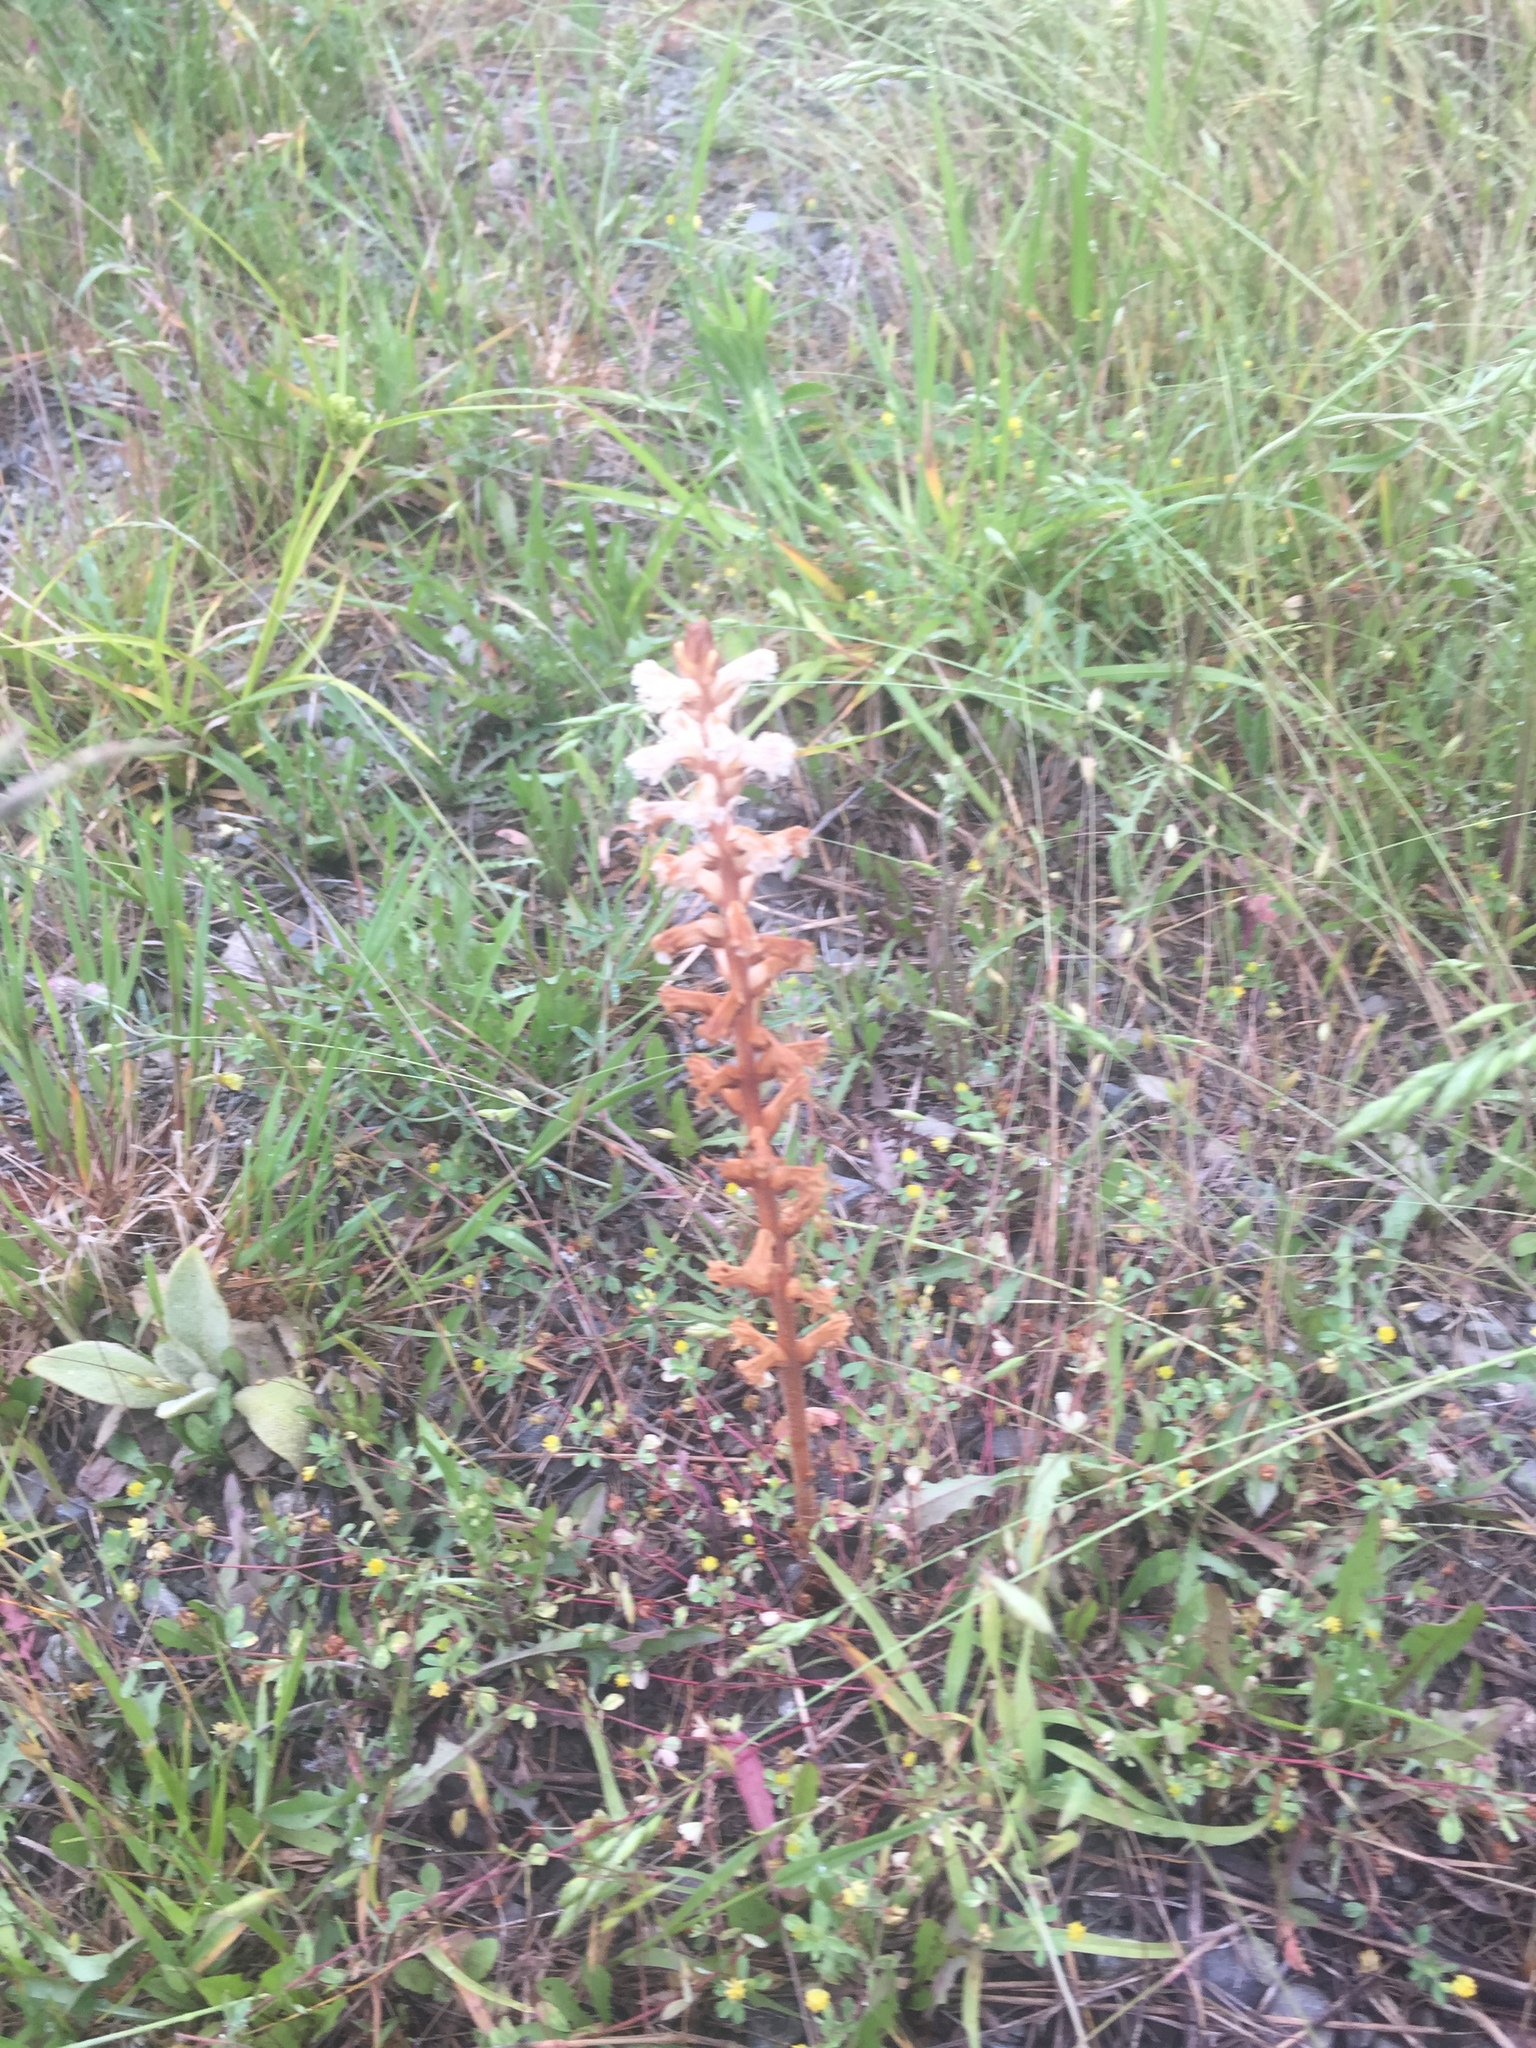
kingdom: Plantae
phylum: Tracheophyta
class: Magnoliopsida
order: Lamiales
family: Orobanchaceae
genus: Orobanche
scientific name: Orobanche minor
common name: Common broomrape
